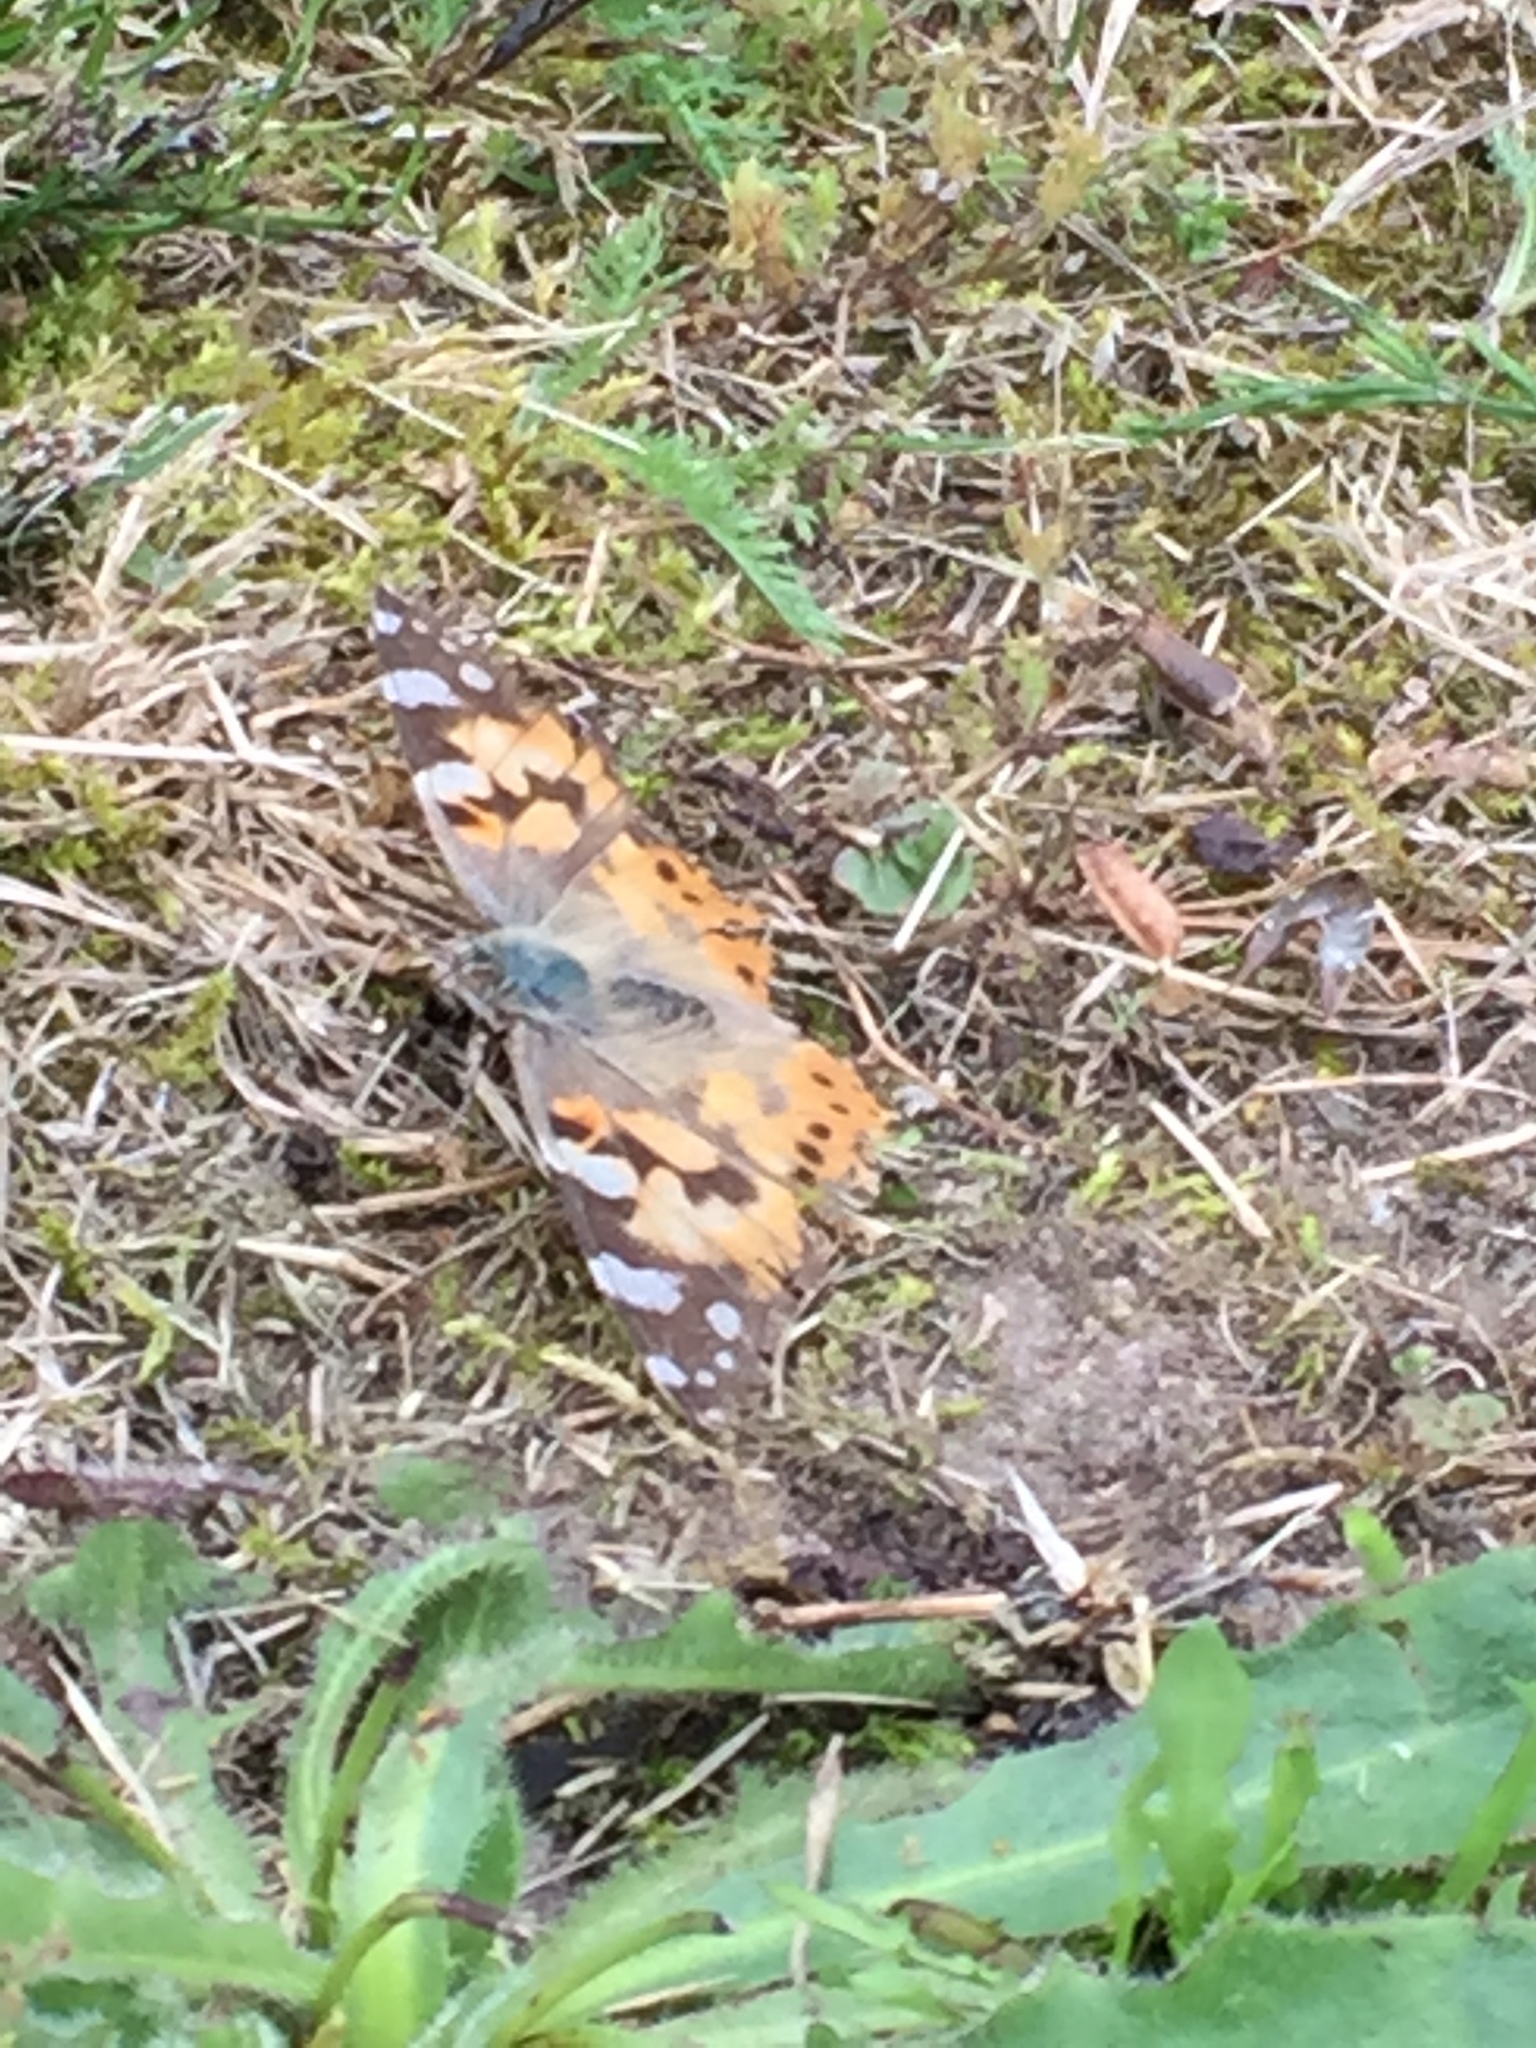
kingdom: Animalia
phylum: Arthropoda
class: Insecta
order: Lepidoptera
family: Nymphalidae
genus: Vanessa
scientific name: Vanessa cardui
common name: Painted lady
